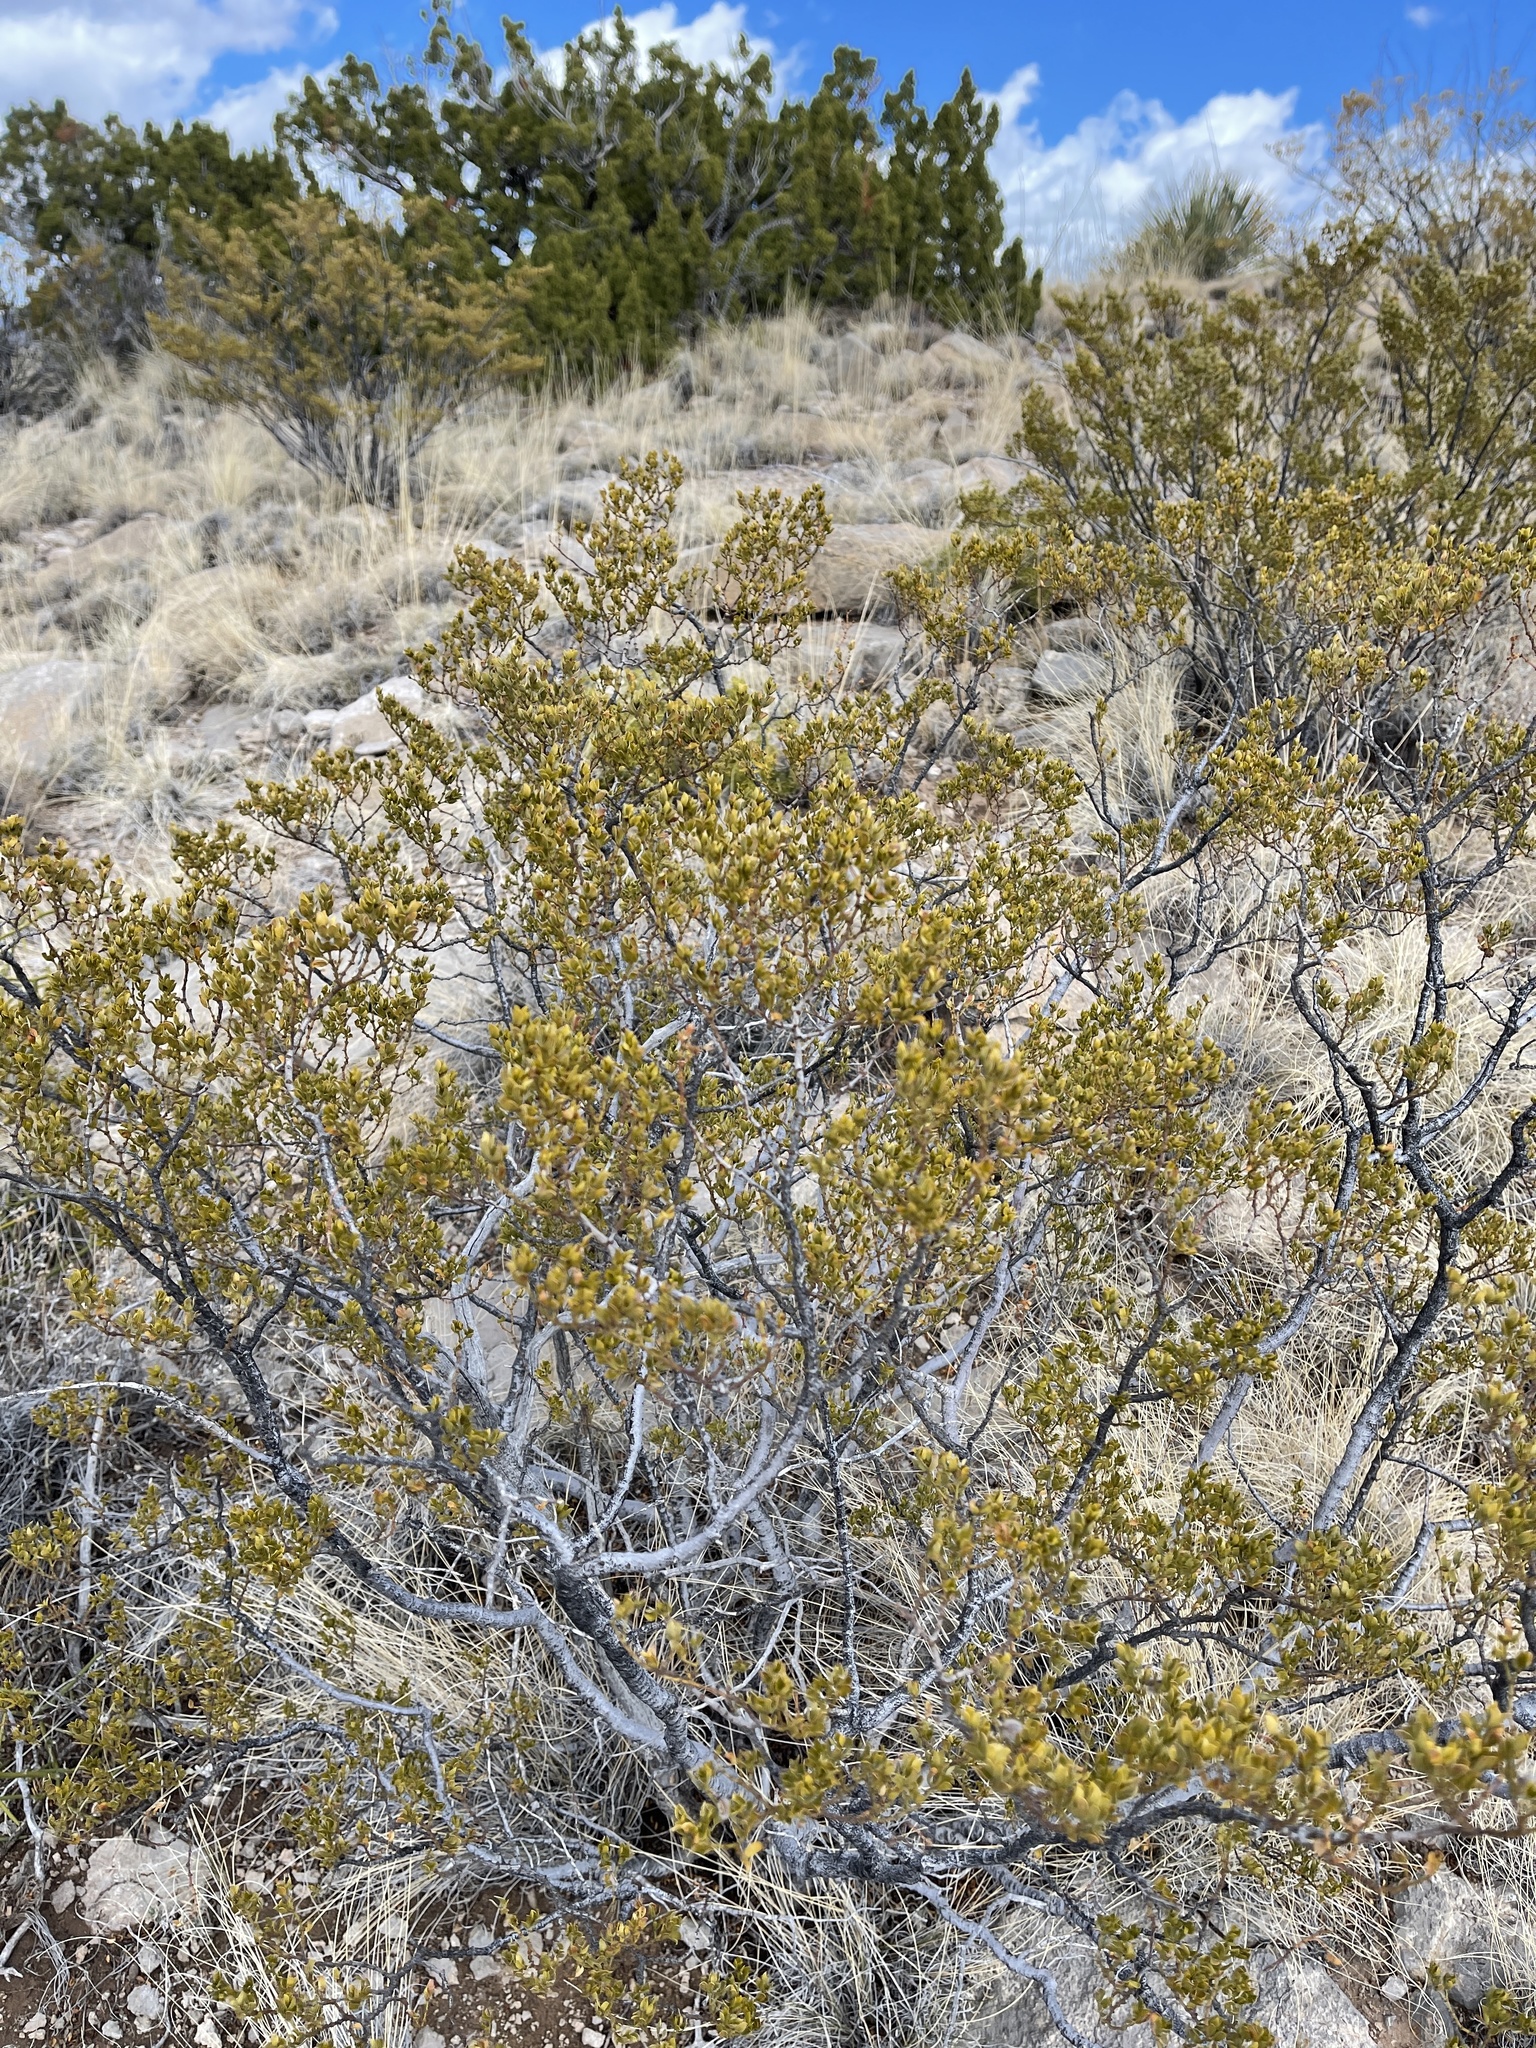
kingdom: Plantae
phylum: Tracheophyta
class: Magnoliopsida
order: Zygophyllales
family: Zygophyllaceae
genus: Larrea
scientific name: Larrea tridentata
